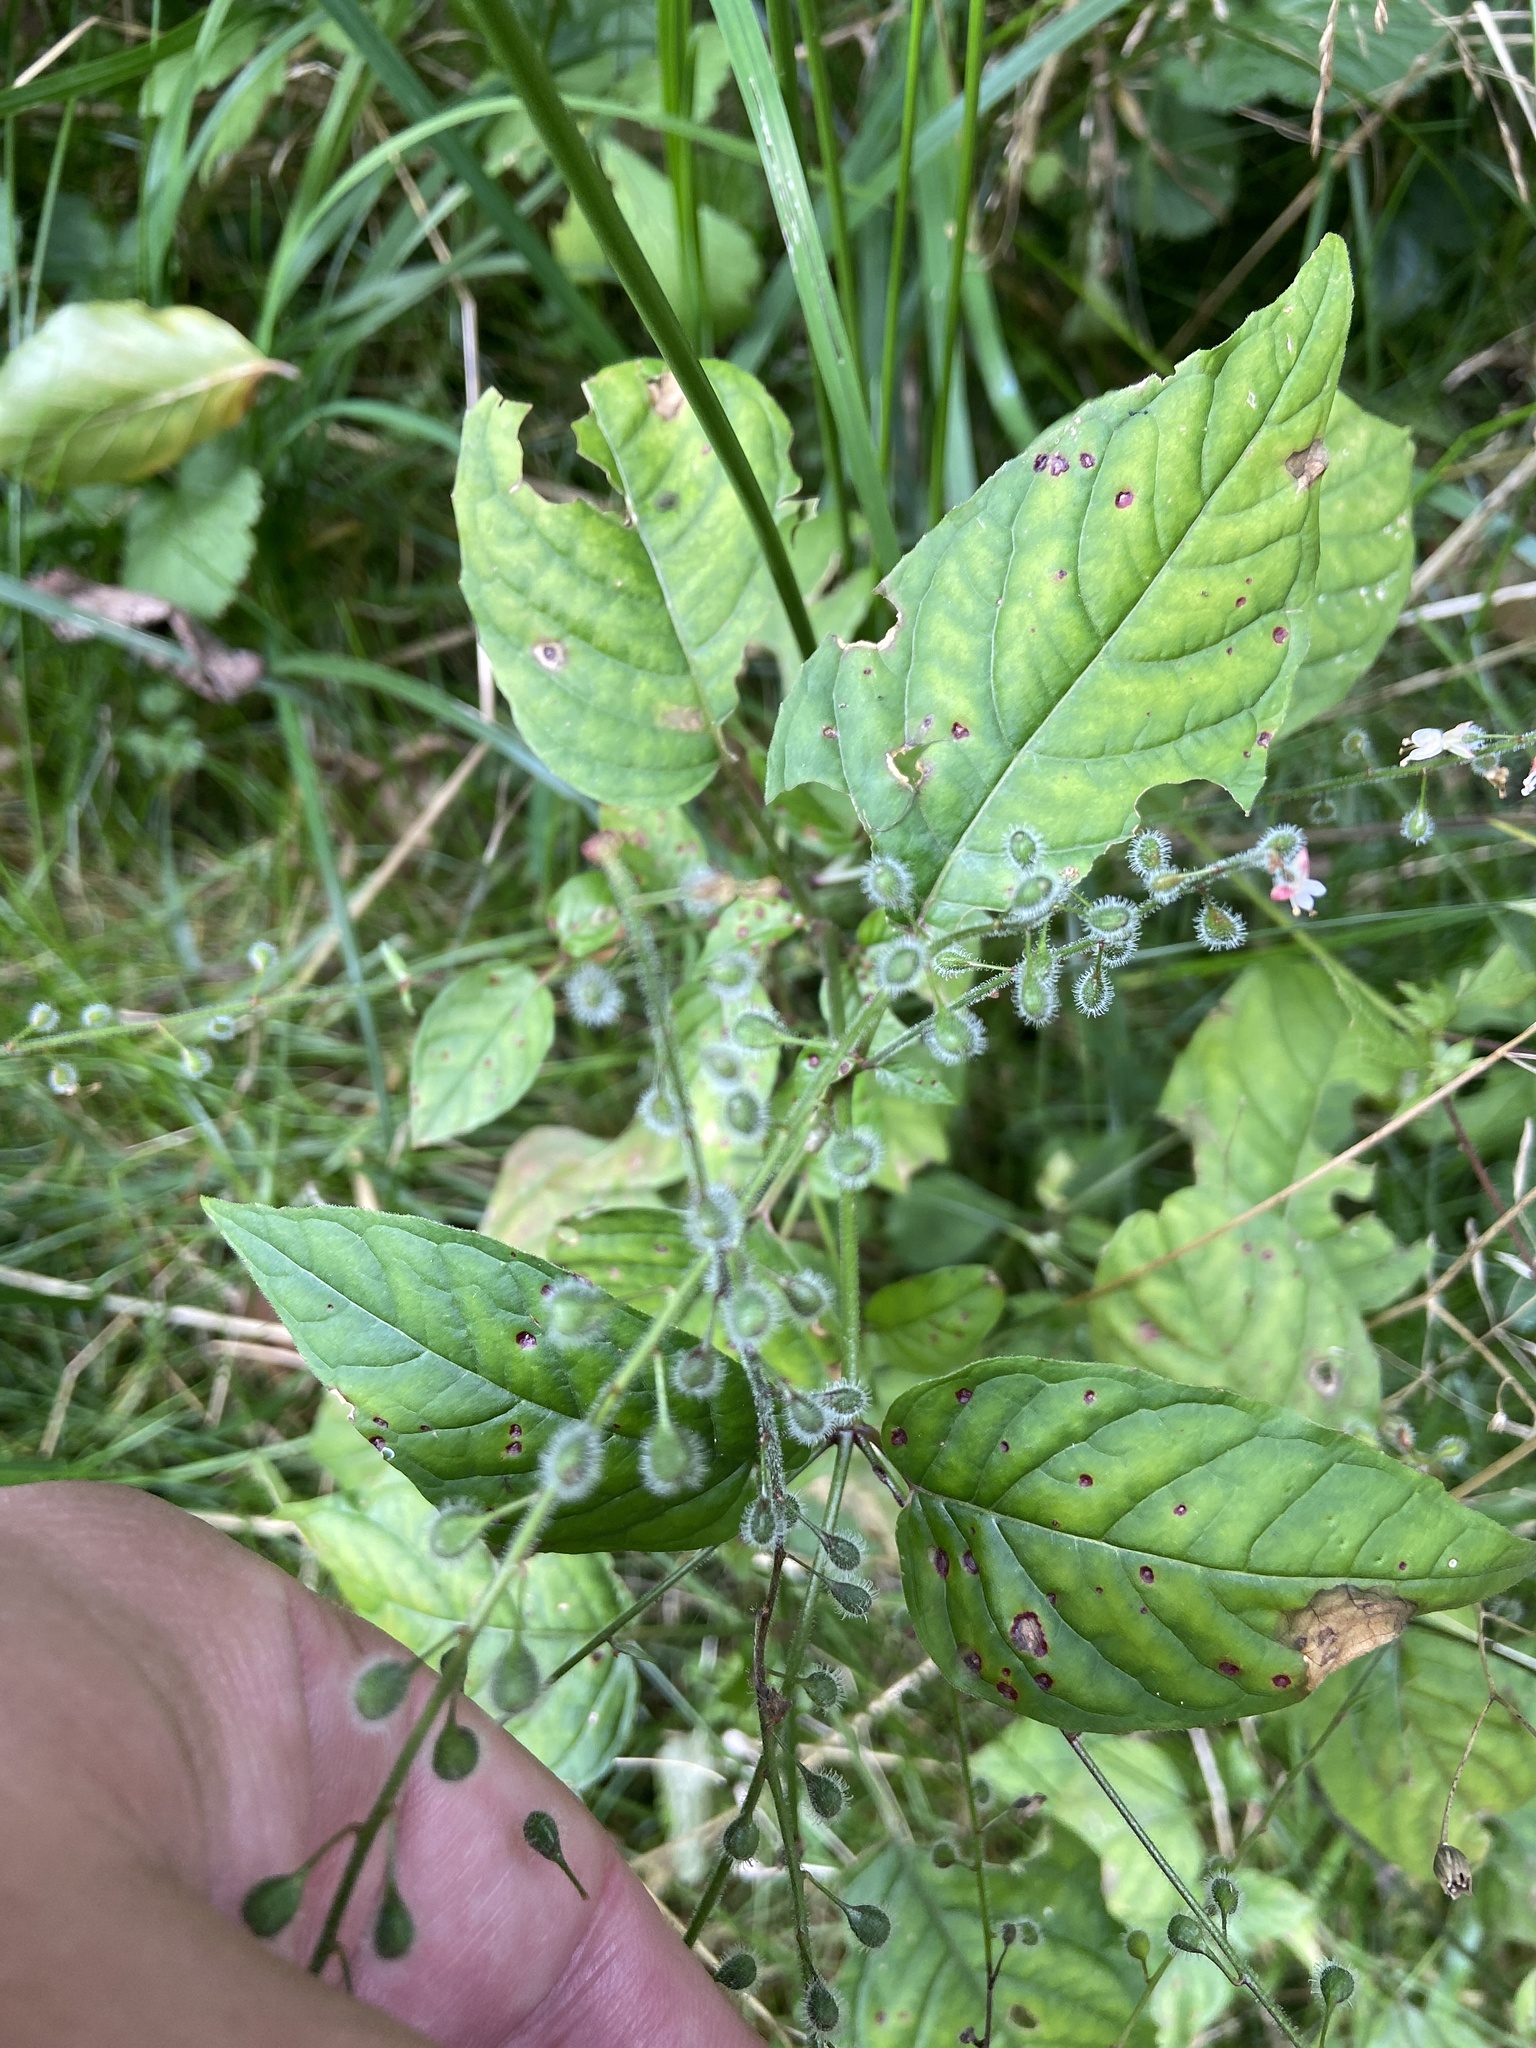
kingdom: Plantae
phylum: Tracheophyta
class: Magnoliopsida
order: Myrtales
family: Onagraceae
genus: Circaea
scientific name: Circaea lutetiana
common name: Enchanter's-nightshade
